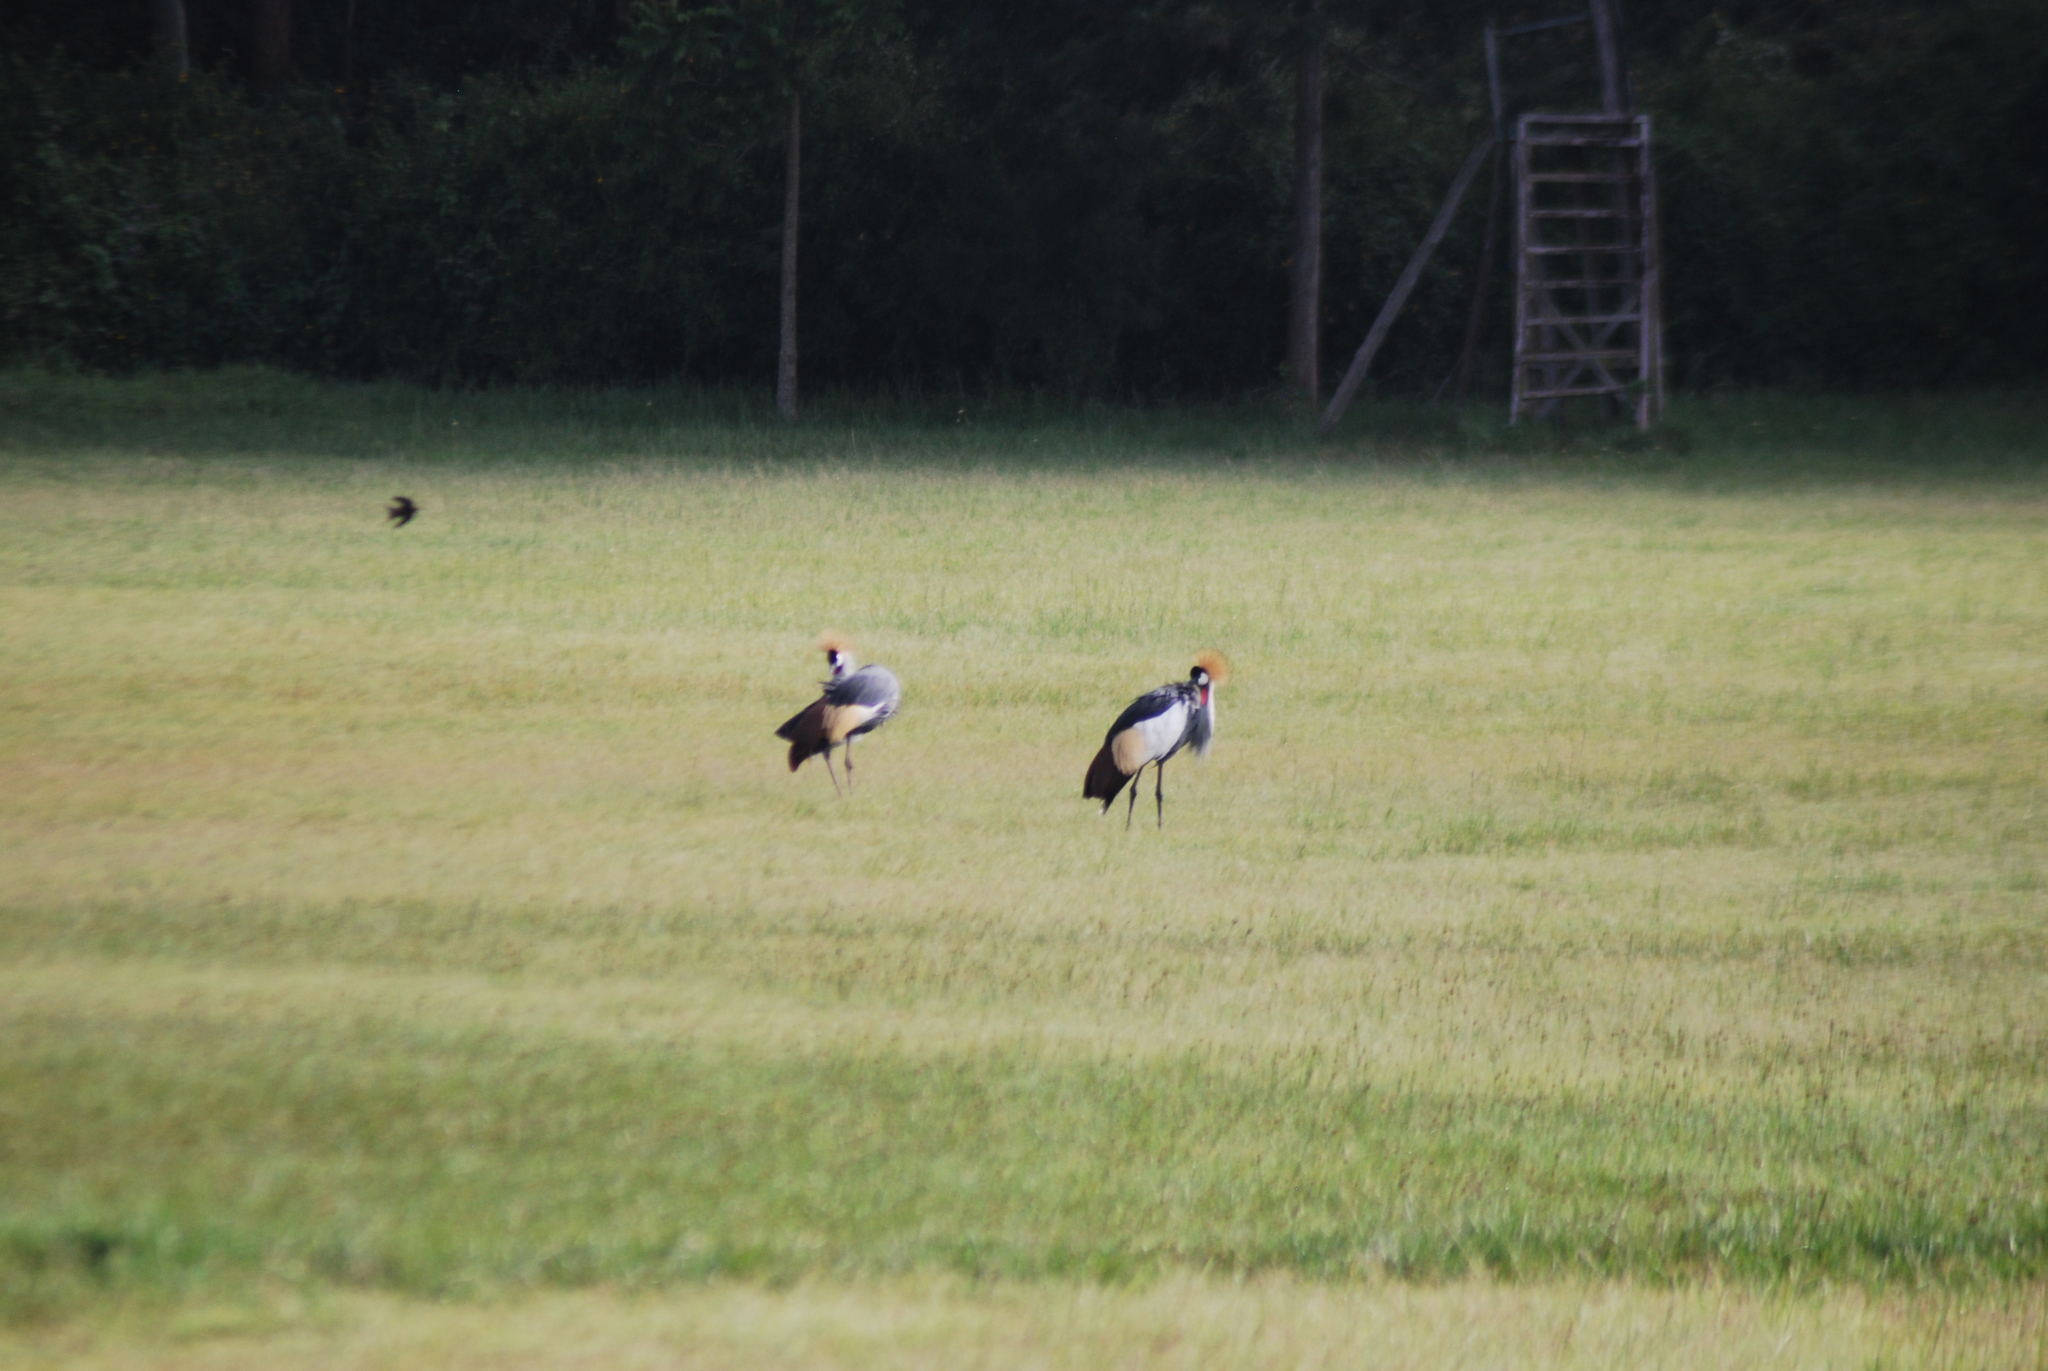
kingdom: Animalia
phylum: Chordata
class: Aves
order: Gruiformes
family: Gruidae
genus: Balearica
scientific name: Balearica regulorum
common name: Grey crowned crane
